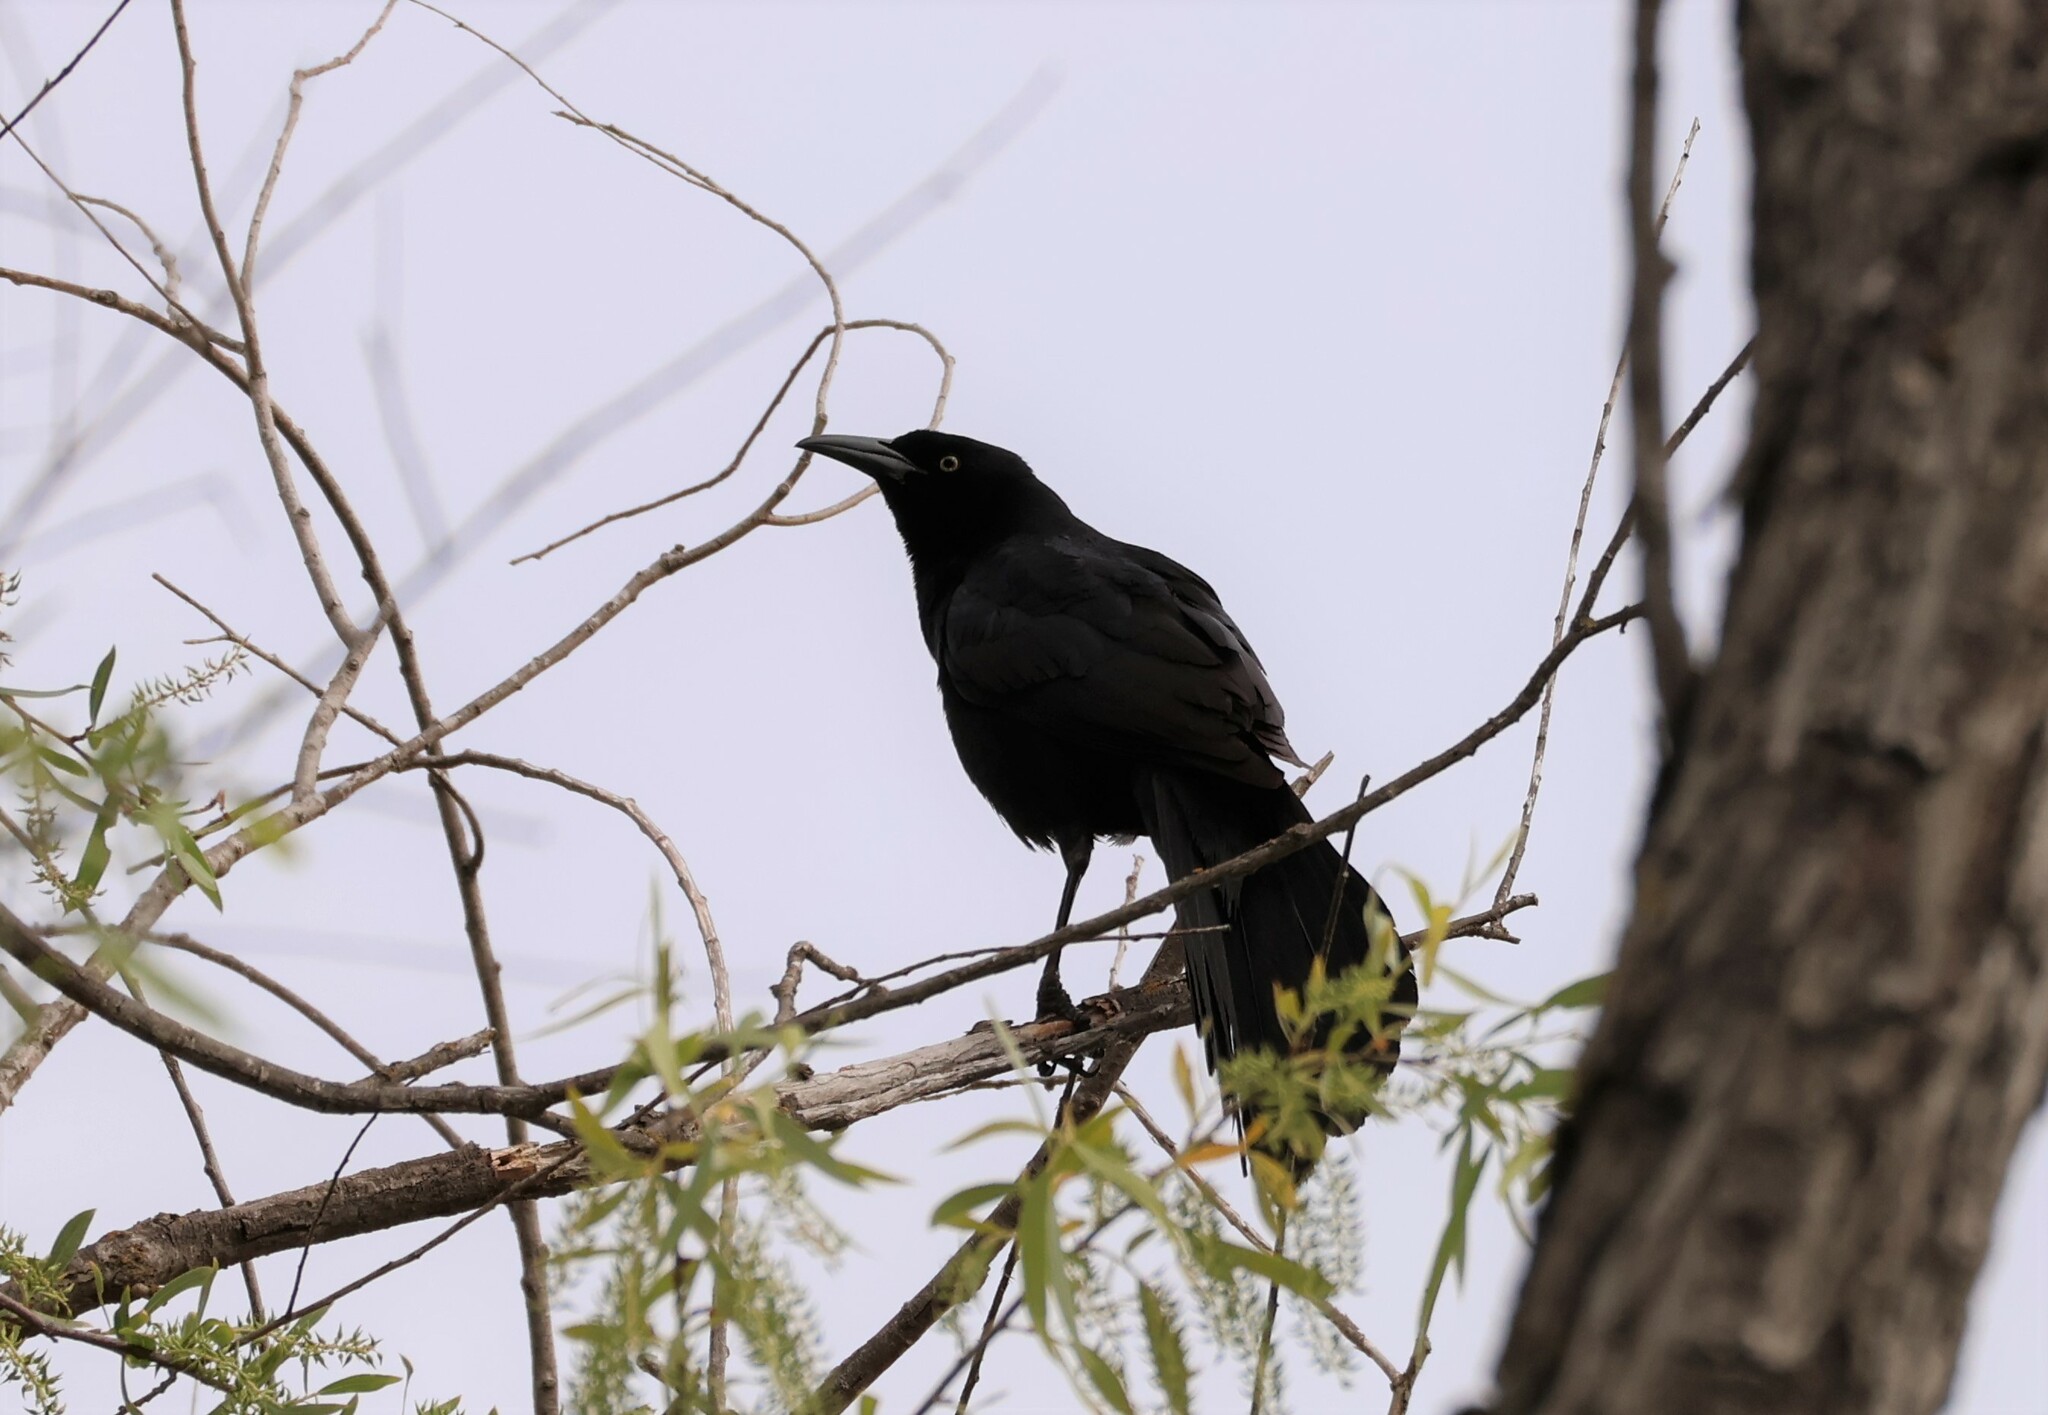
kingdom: Animalia
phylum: Chordata
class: Aves
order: Passeriformes
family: Icteridae
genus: Quiscalus
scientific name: Quiscalus mexicanus
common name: Great-tailed grackle
